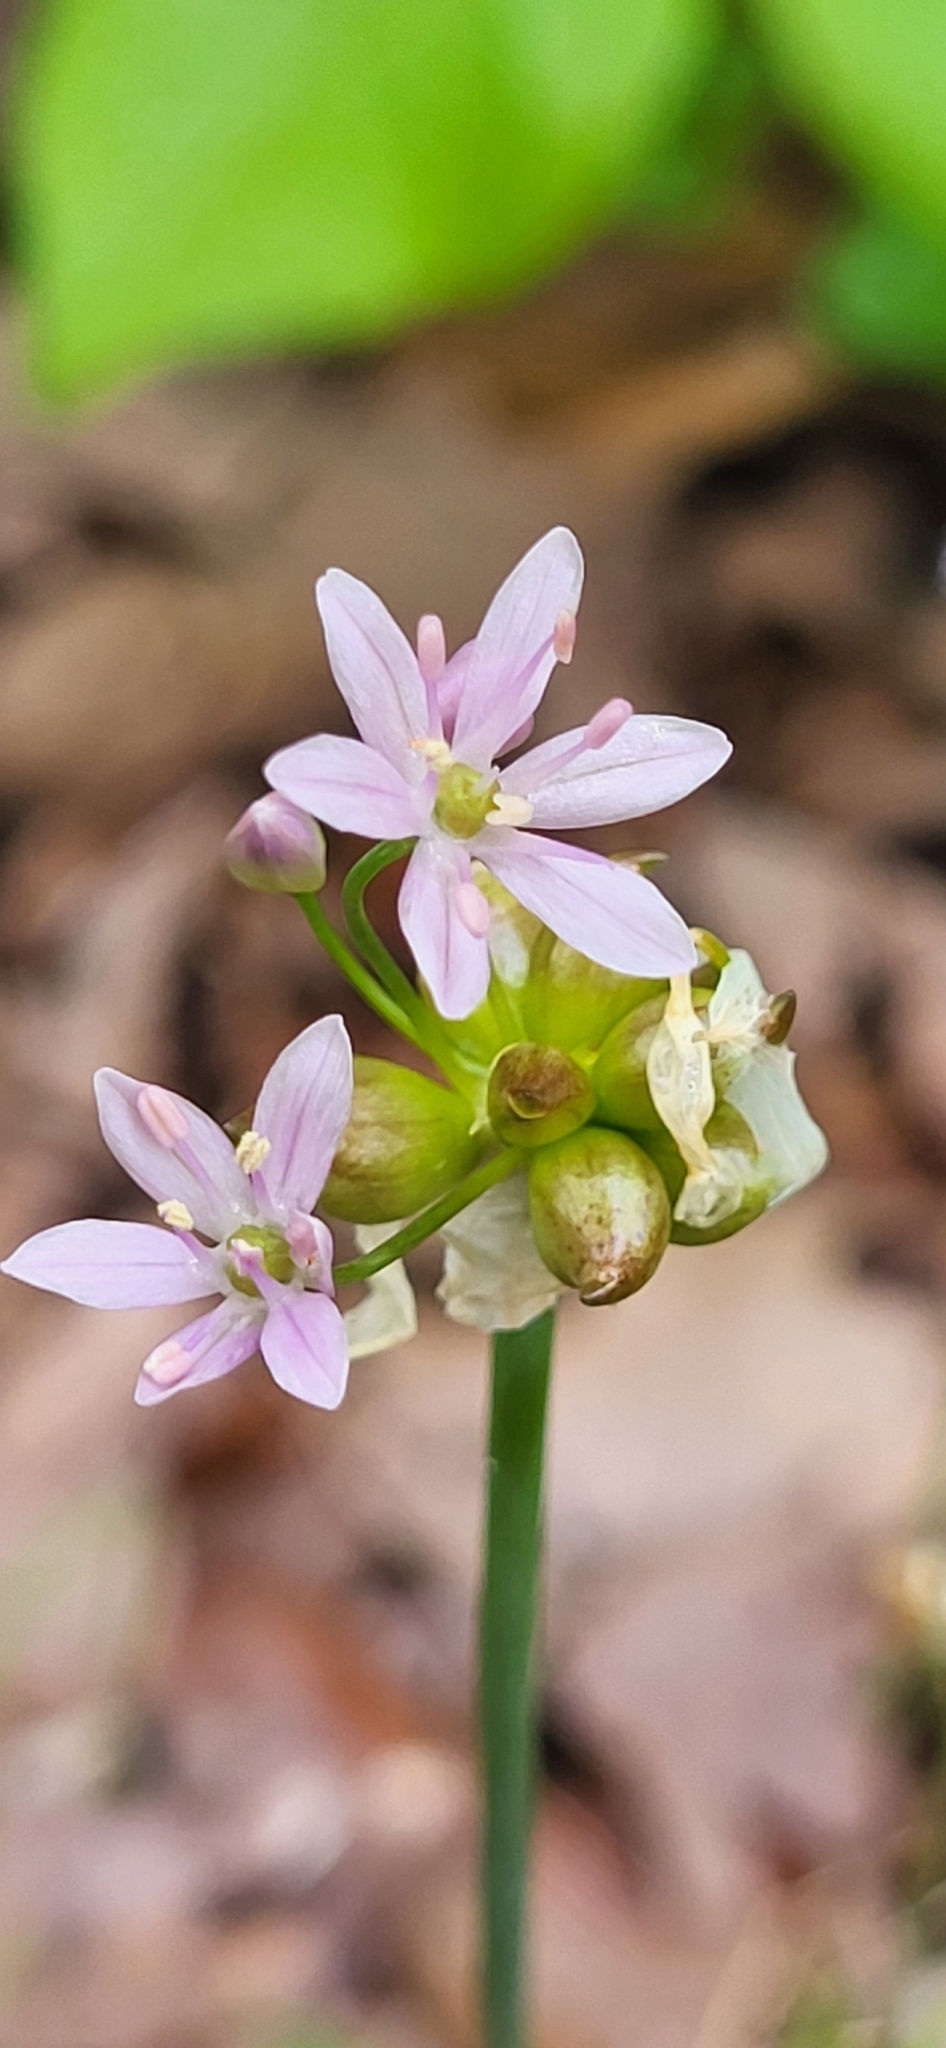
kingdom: Plantae
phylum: Tracheophyta
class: Liliopsida
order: Asparagales
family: Amaryllidaceae
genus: Allium
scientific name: Allium canadense
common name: Meadow garlic
